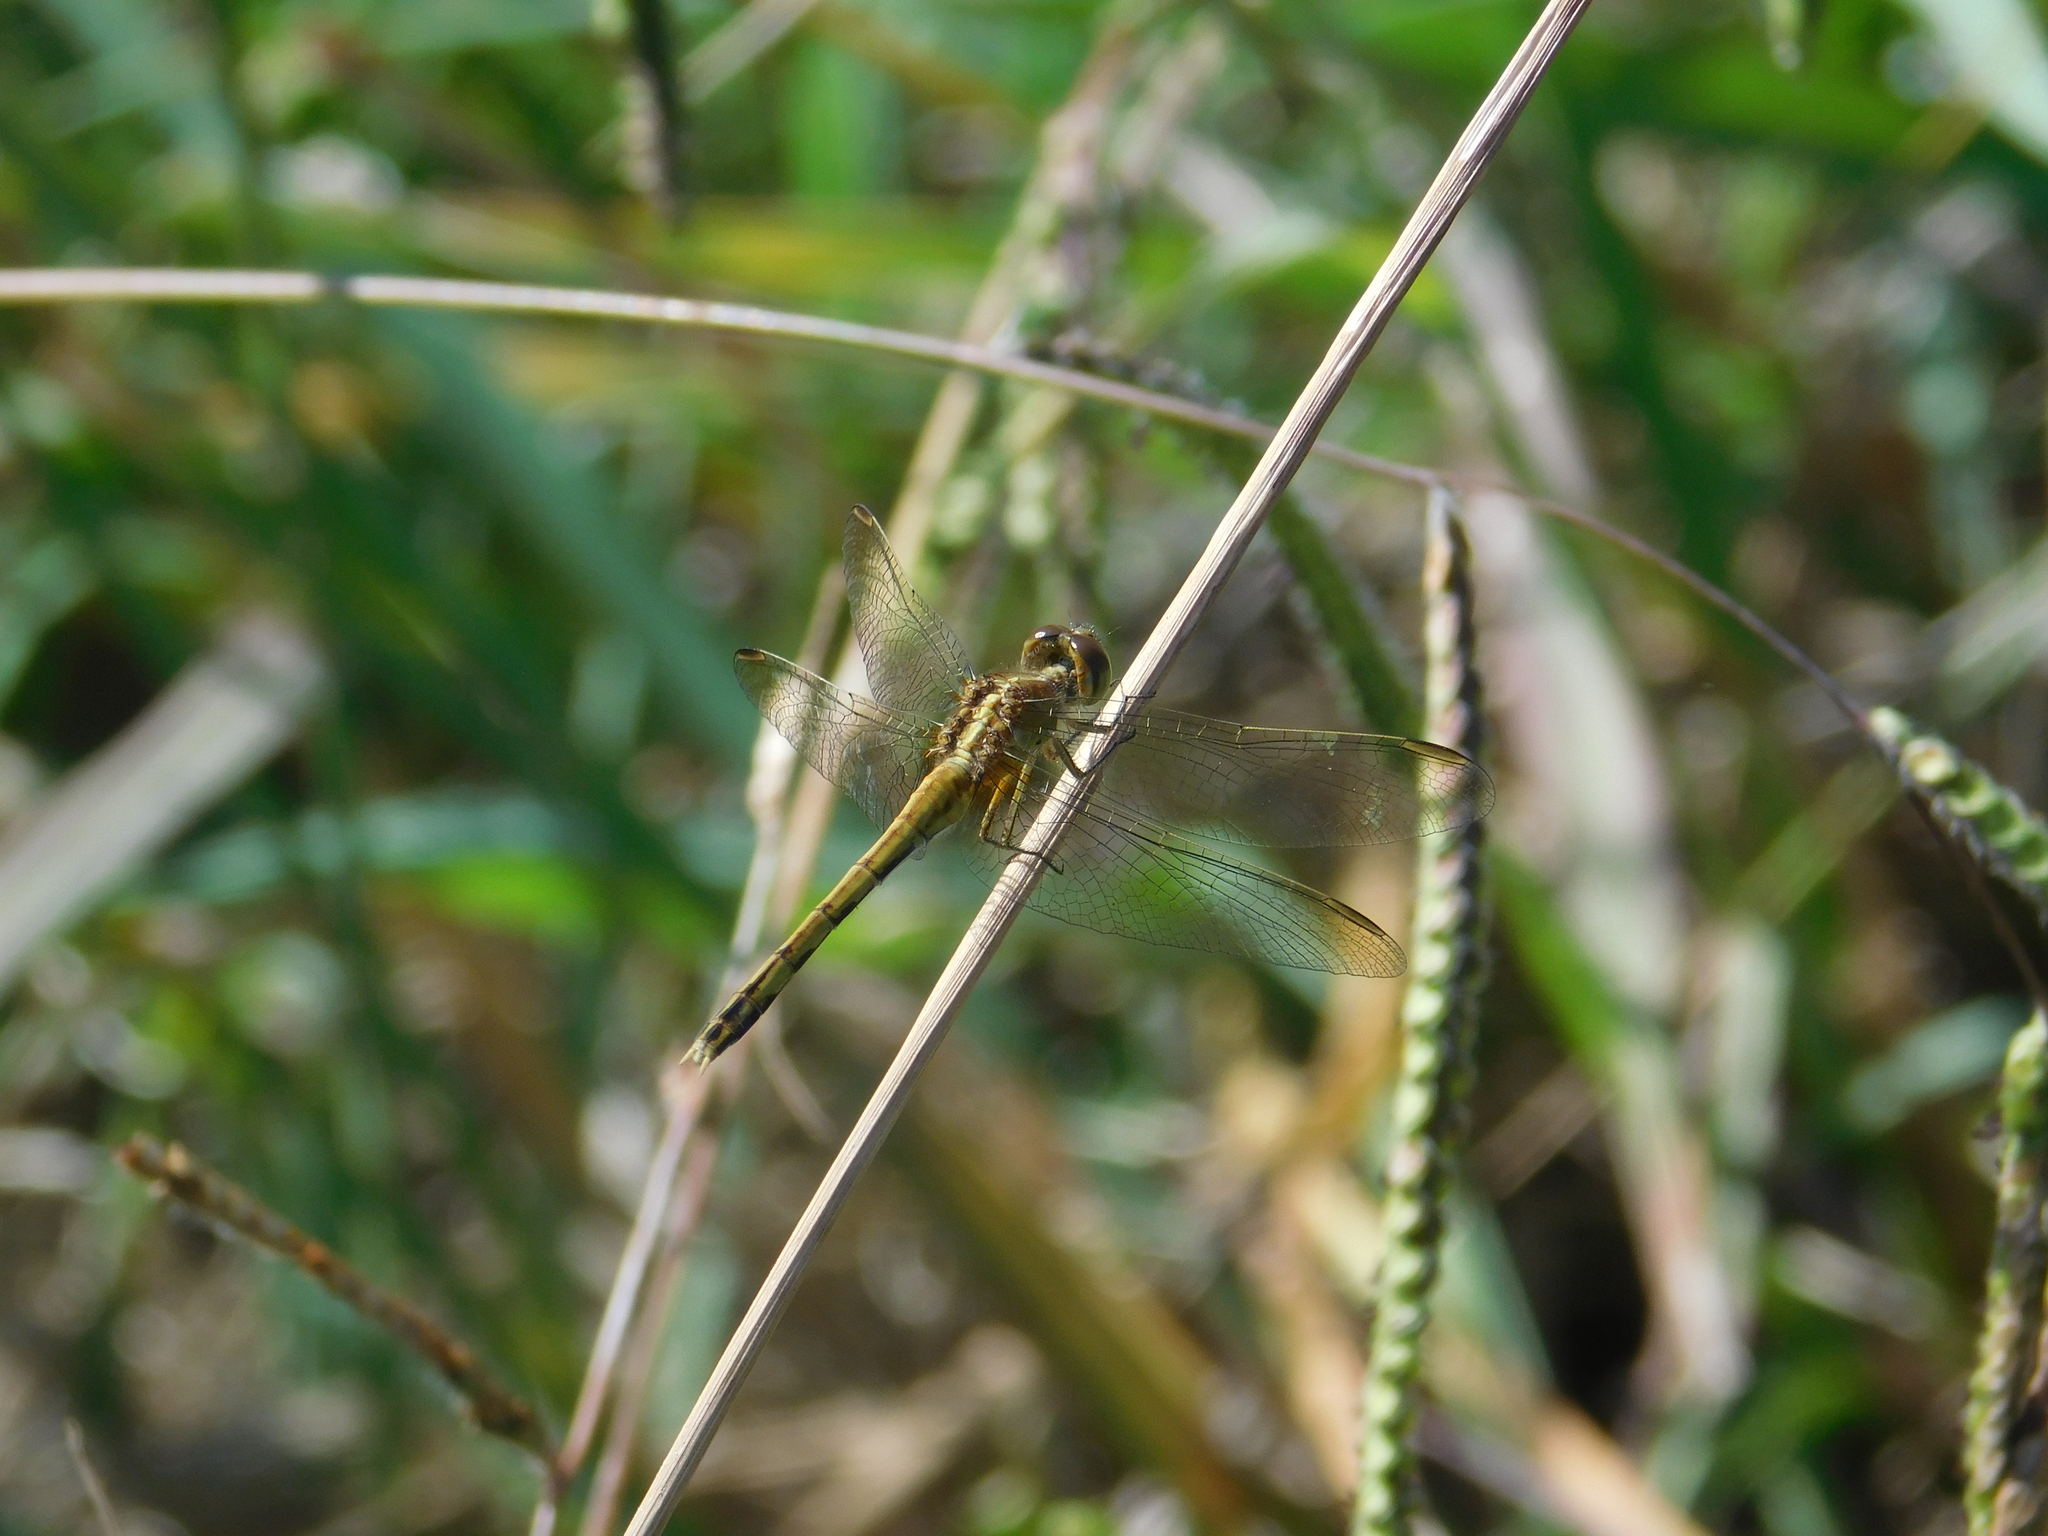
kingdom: Animalia
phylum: Arthropoda
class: Insecta
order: Odonata
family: Libellulidae
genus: Erythrodiplax
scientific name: Erythrodiplax nigricans
